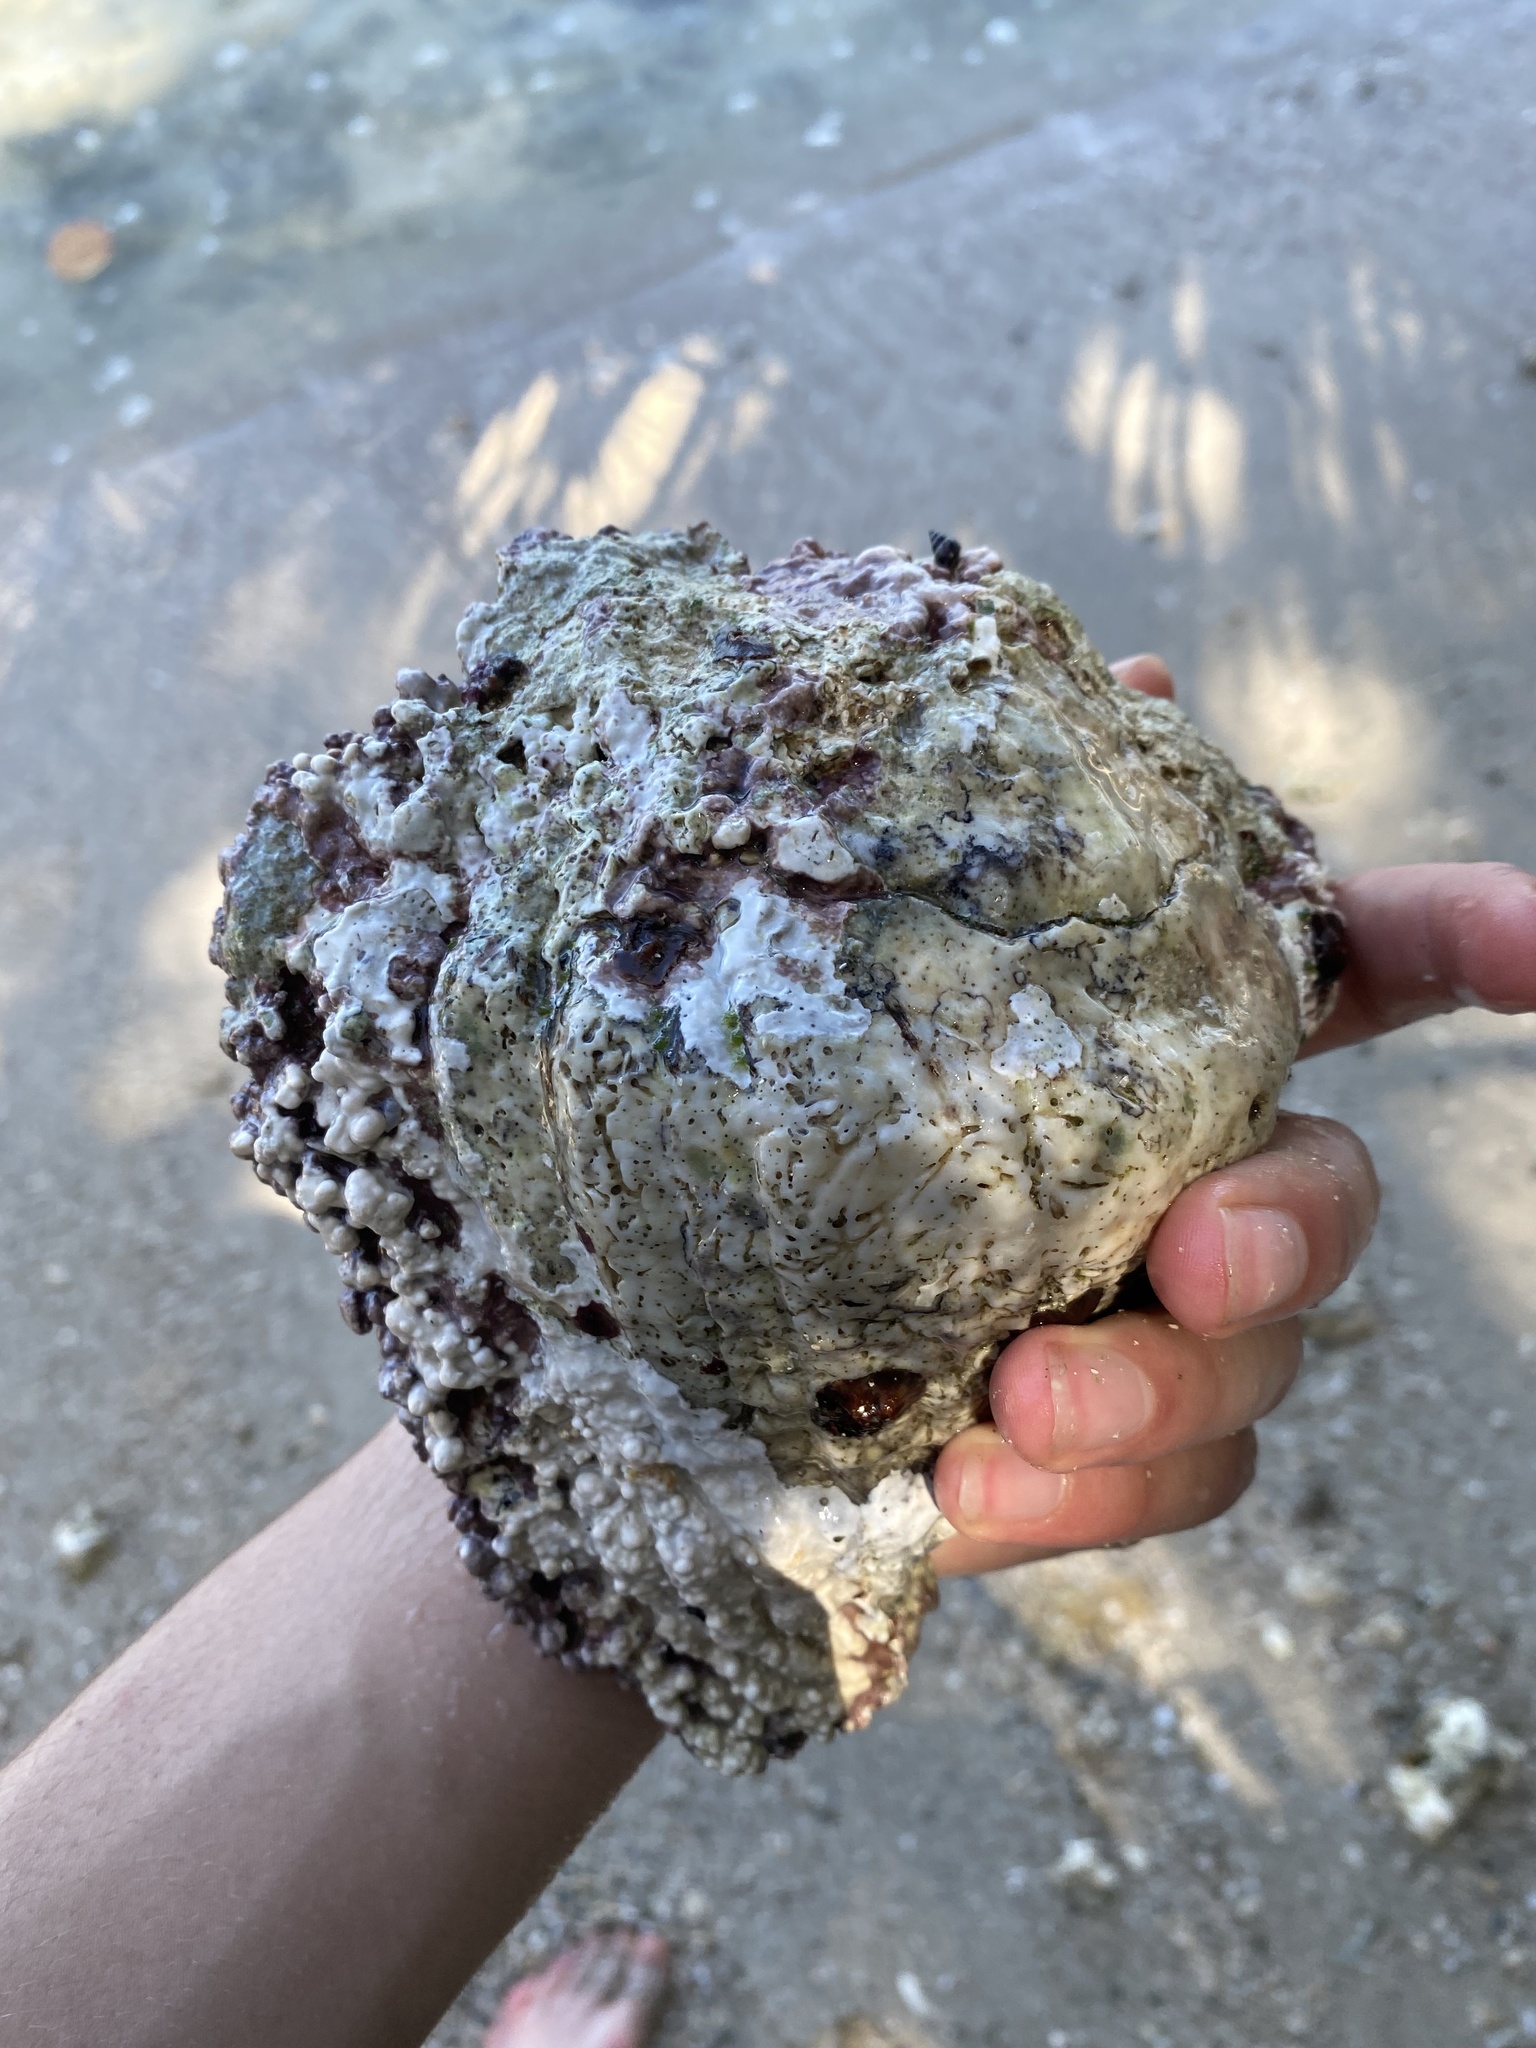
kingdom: Animalia
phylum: Mollusca
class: Gastropoda
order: Neogastropoda
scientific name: Neogastropoda
